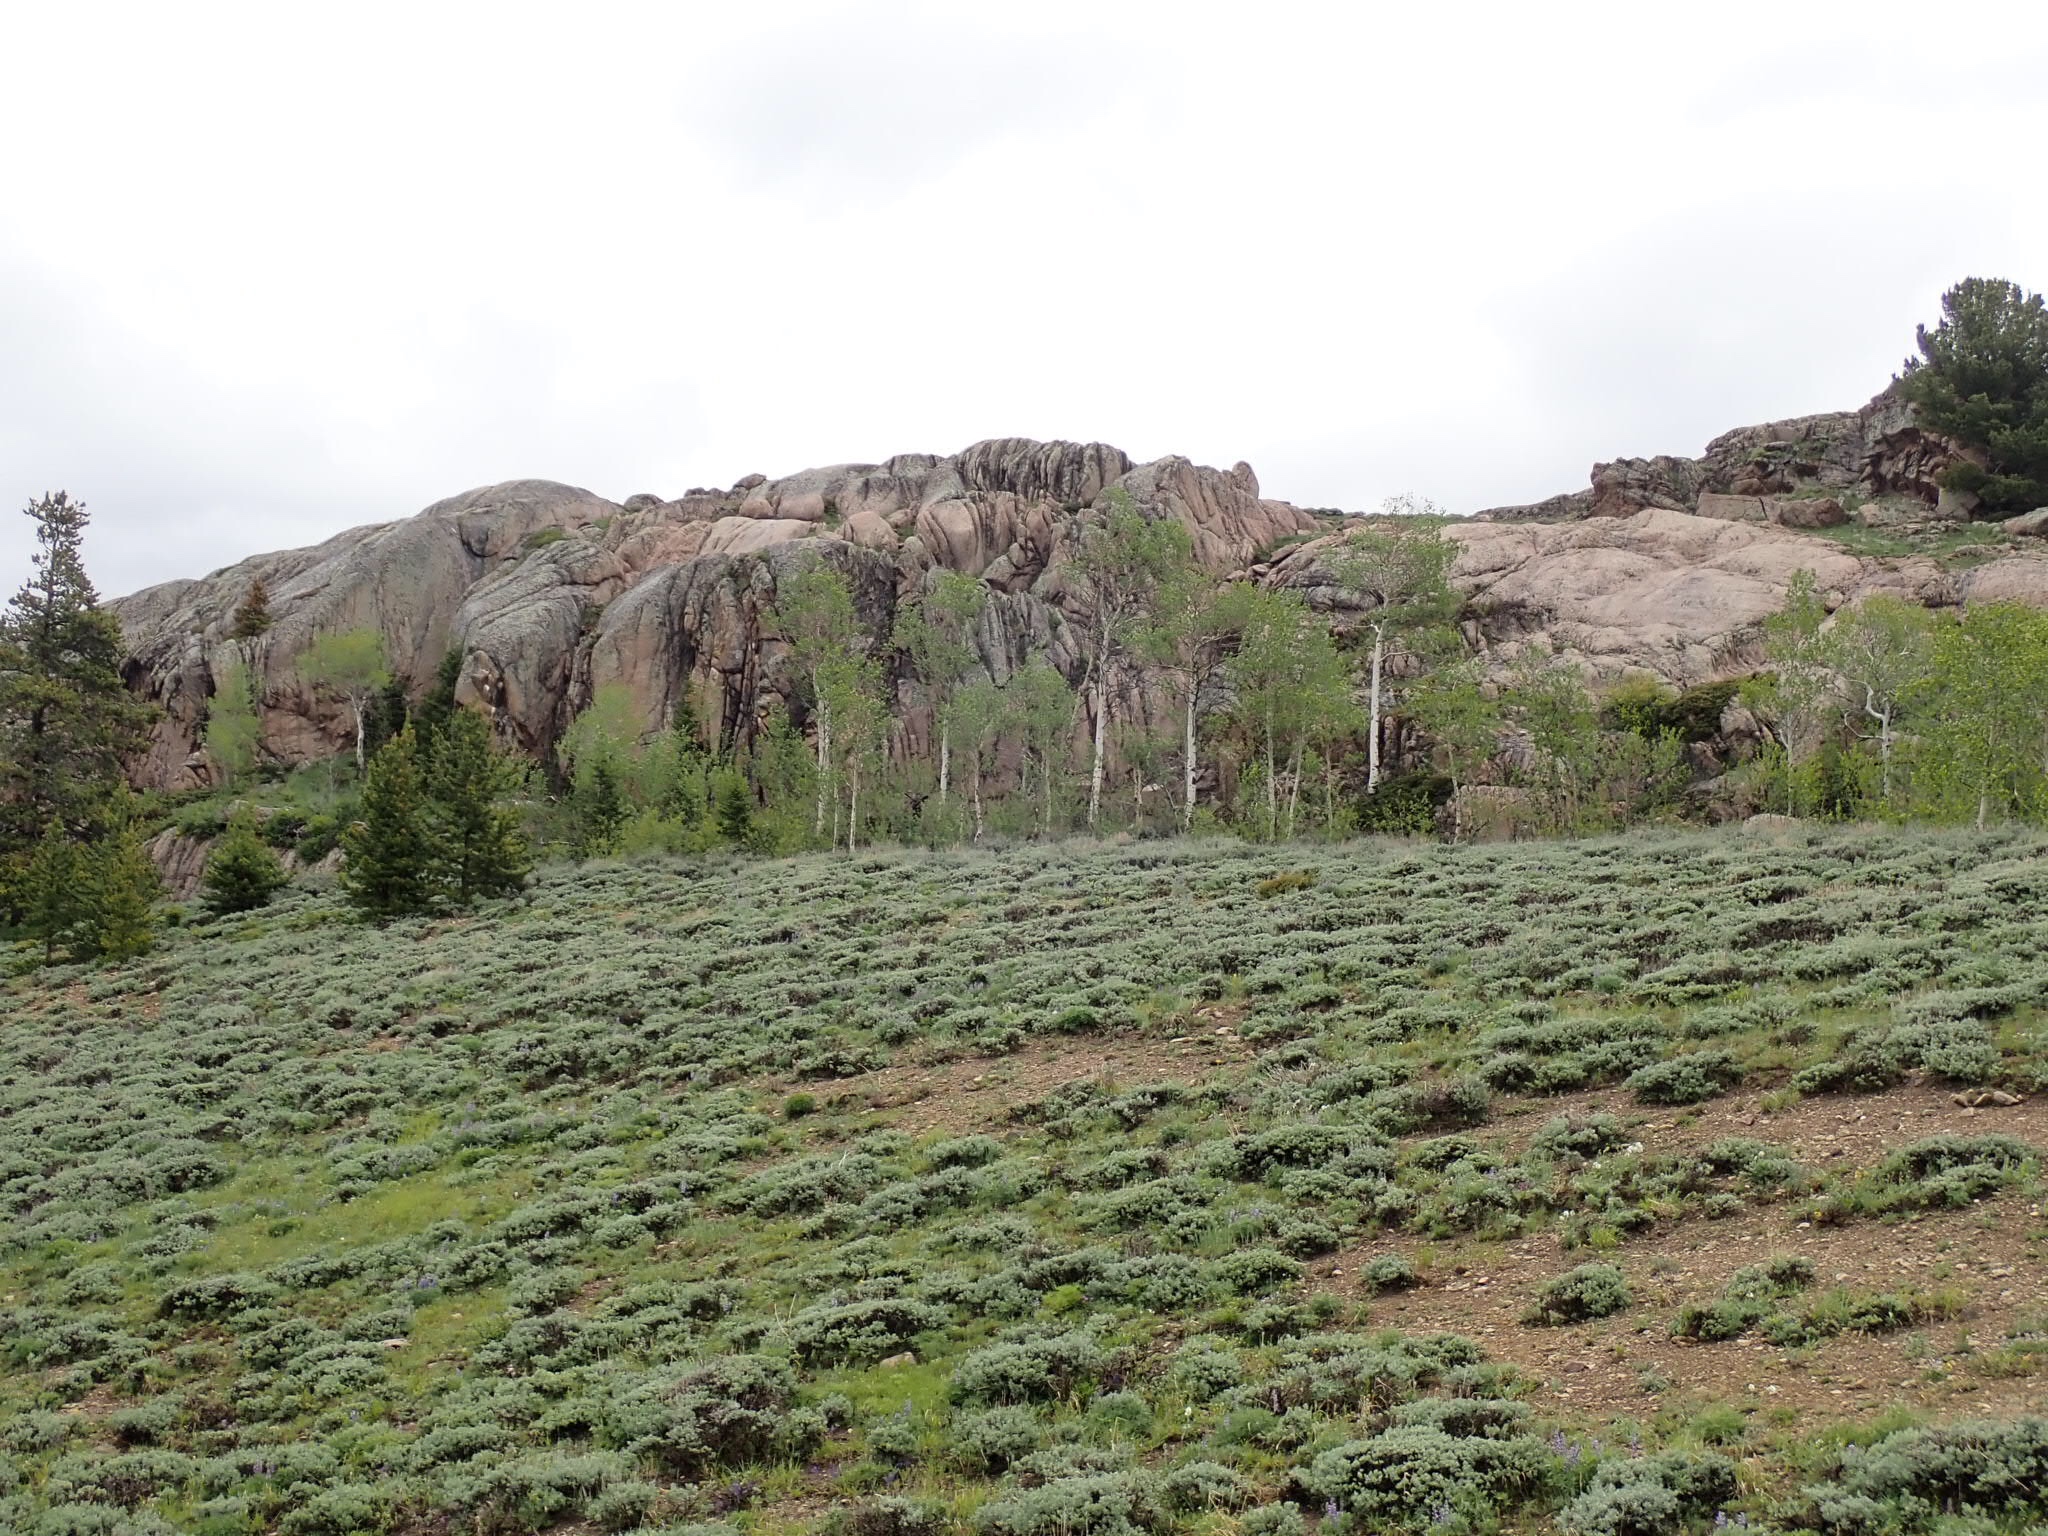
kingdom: Animalia
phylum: Chordata
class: Mammalia
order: Artiodactyla
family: Cervidae
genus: Alces
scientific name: Alces alces
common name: Moose
